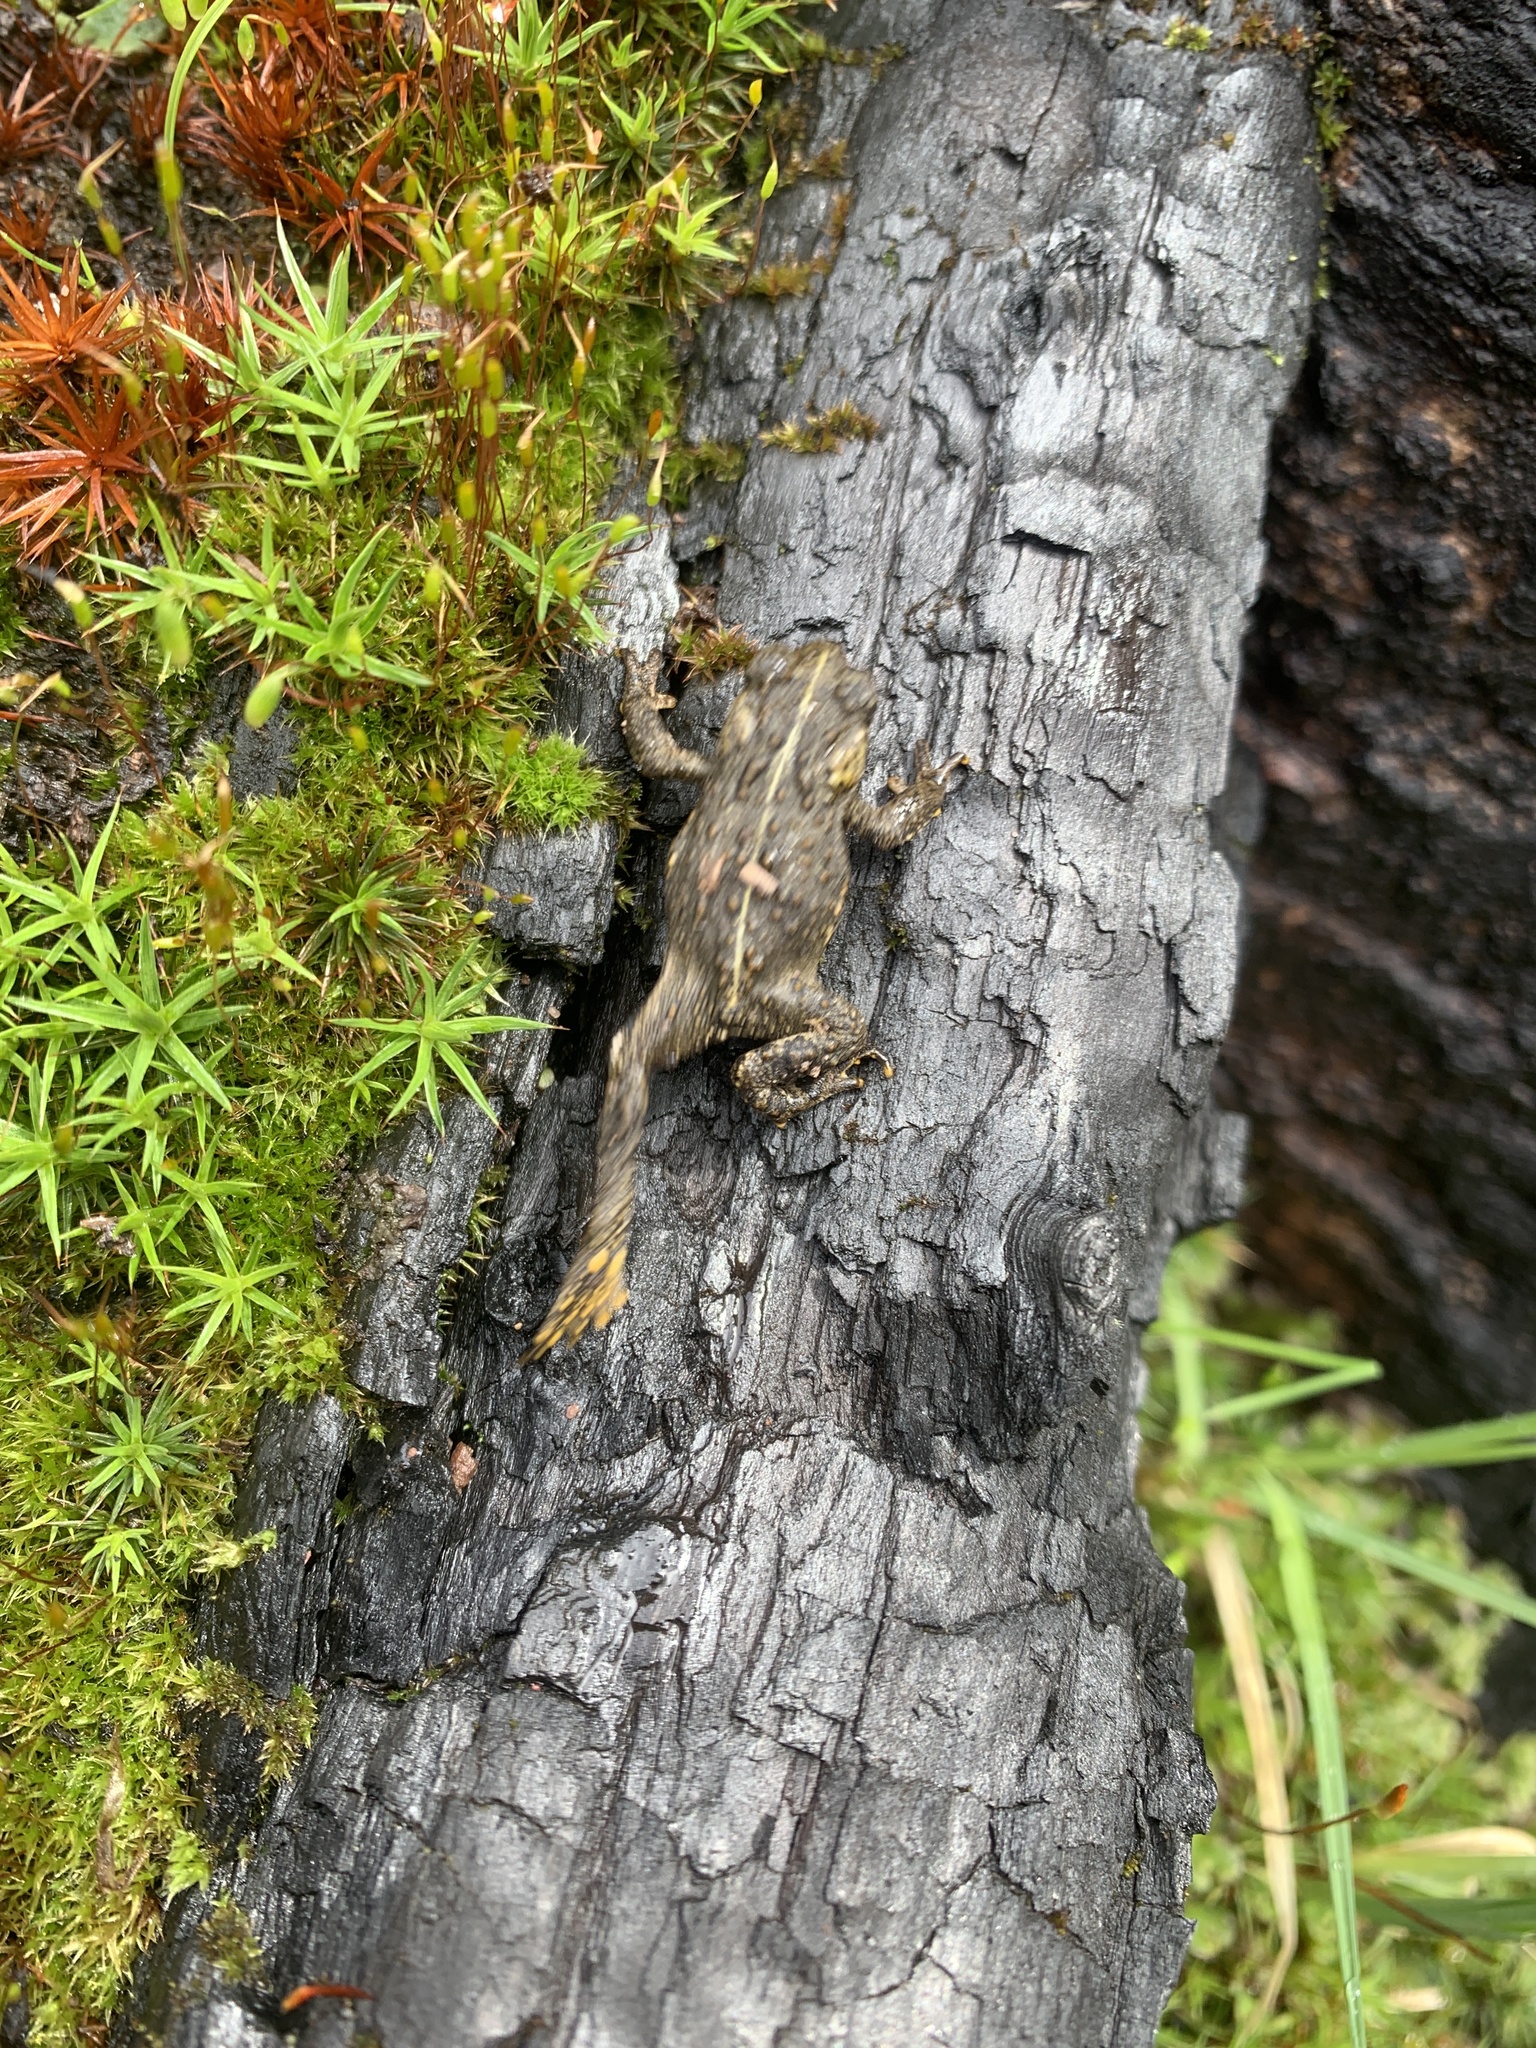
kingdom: Animalia
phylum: Chordata
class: Amphibia
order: Anura
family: Bufonidae
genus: Anaxyrus
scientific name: Anaxyrus boreas
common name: Western toad
